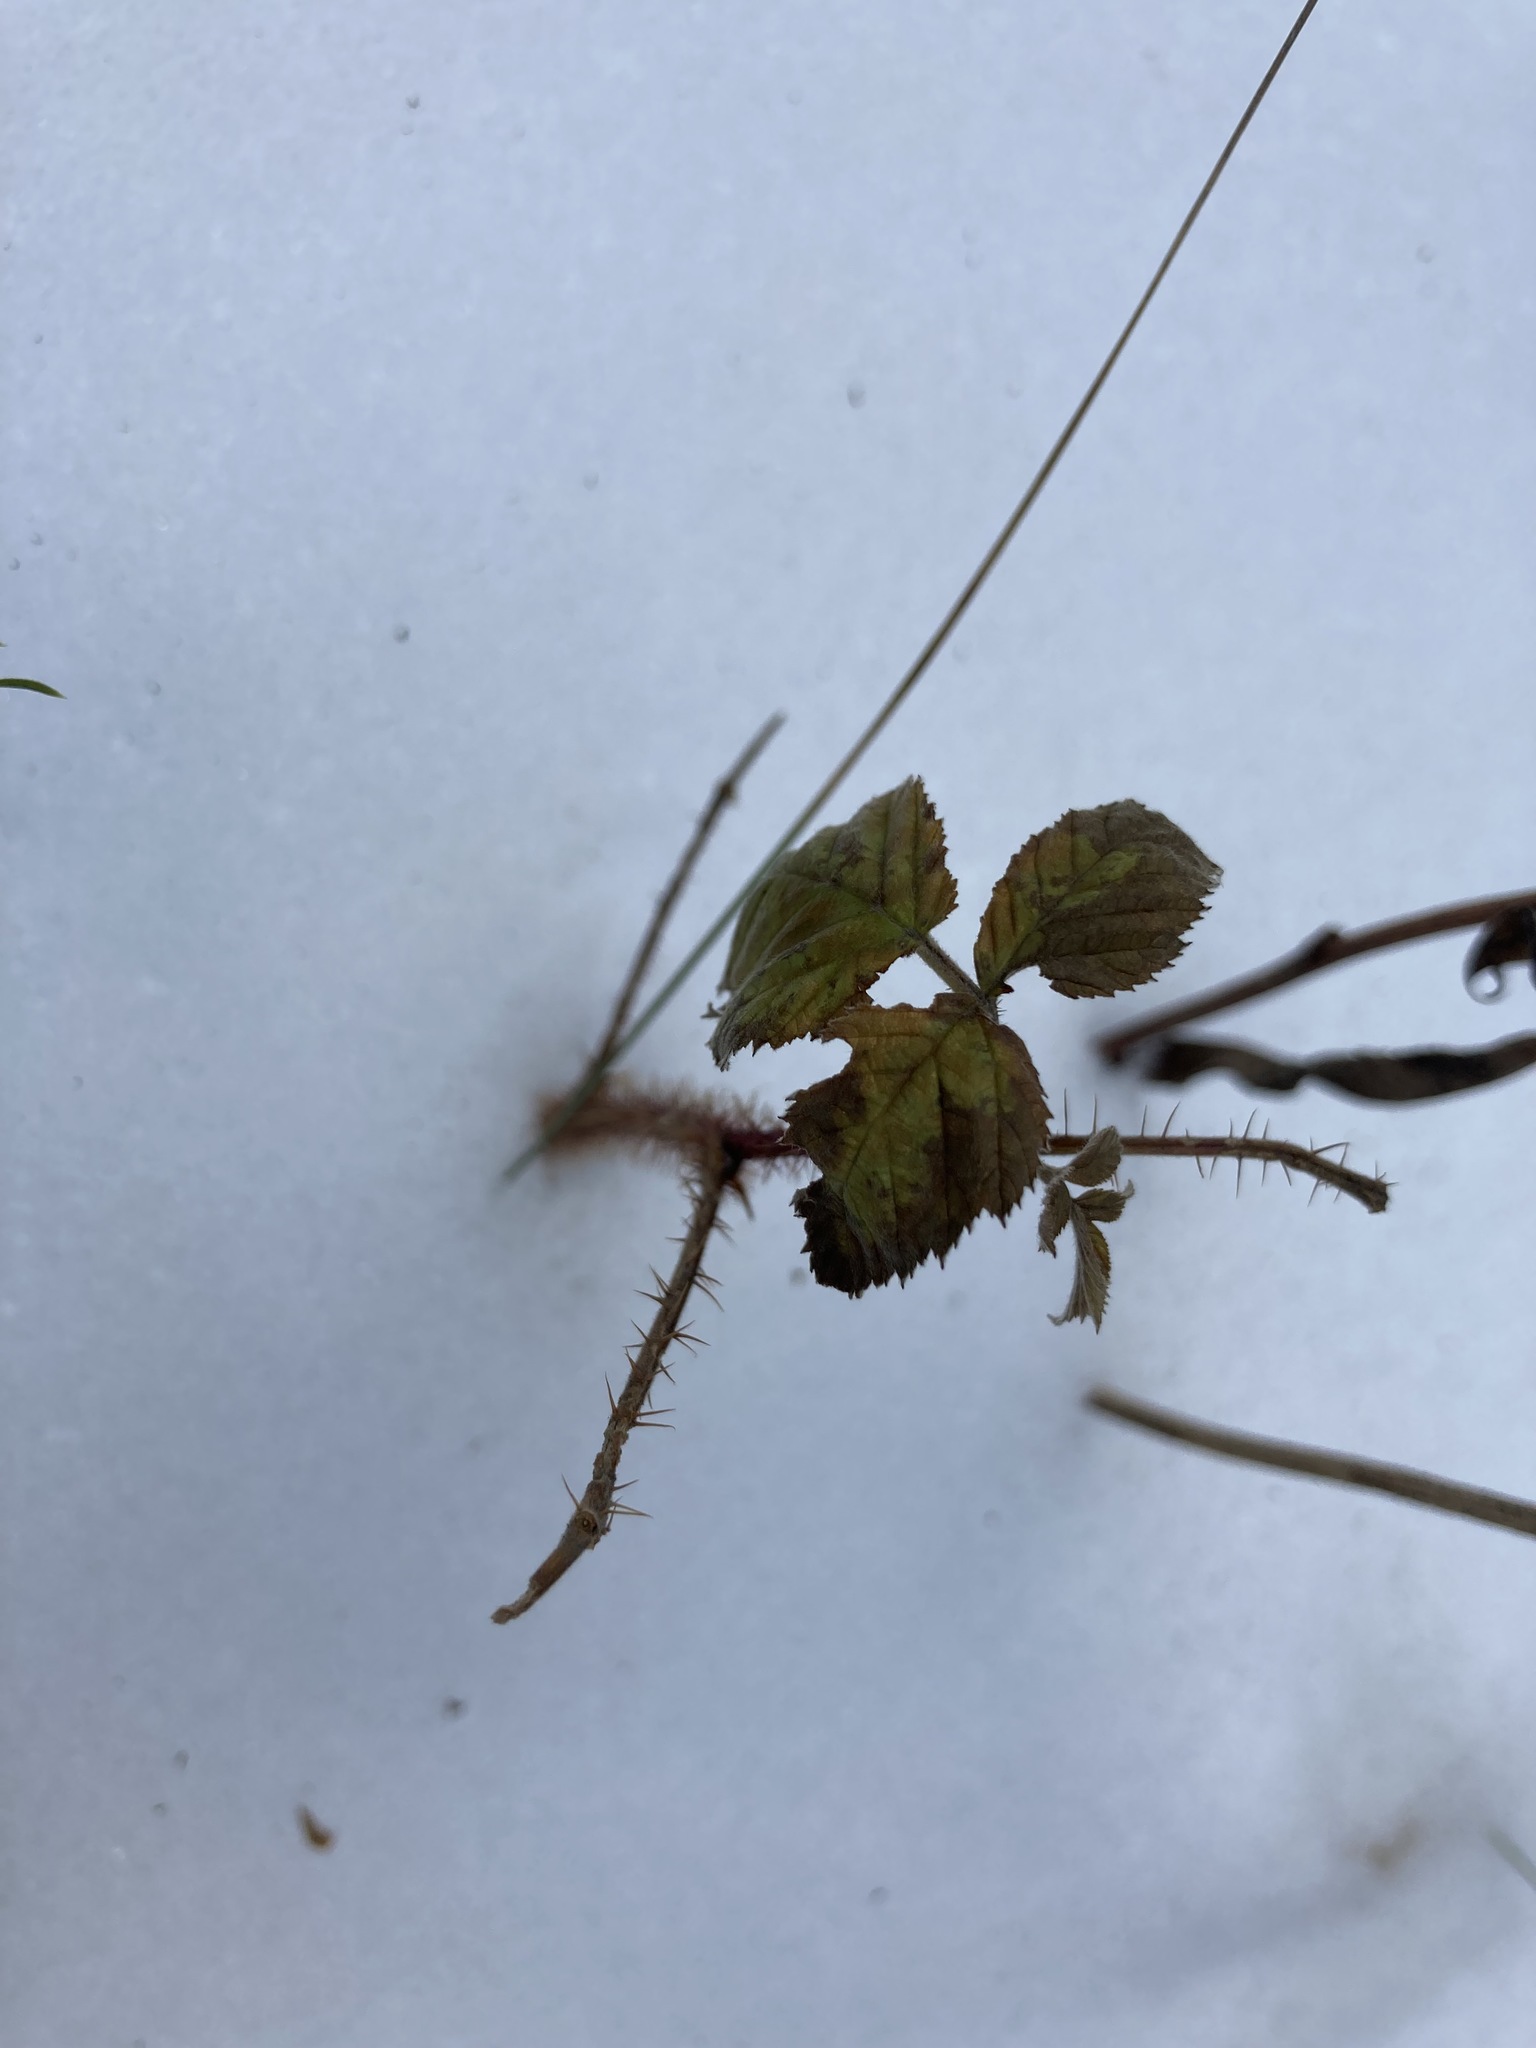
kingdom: Plantae
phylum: Tracheophyta
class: Magnoliopsida
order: Rosales
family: Rosaceae
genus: Rubus
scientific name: Rubus sachalinensis
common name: Red raspberry
